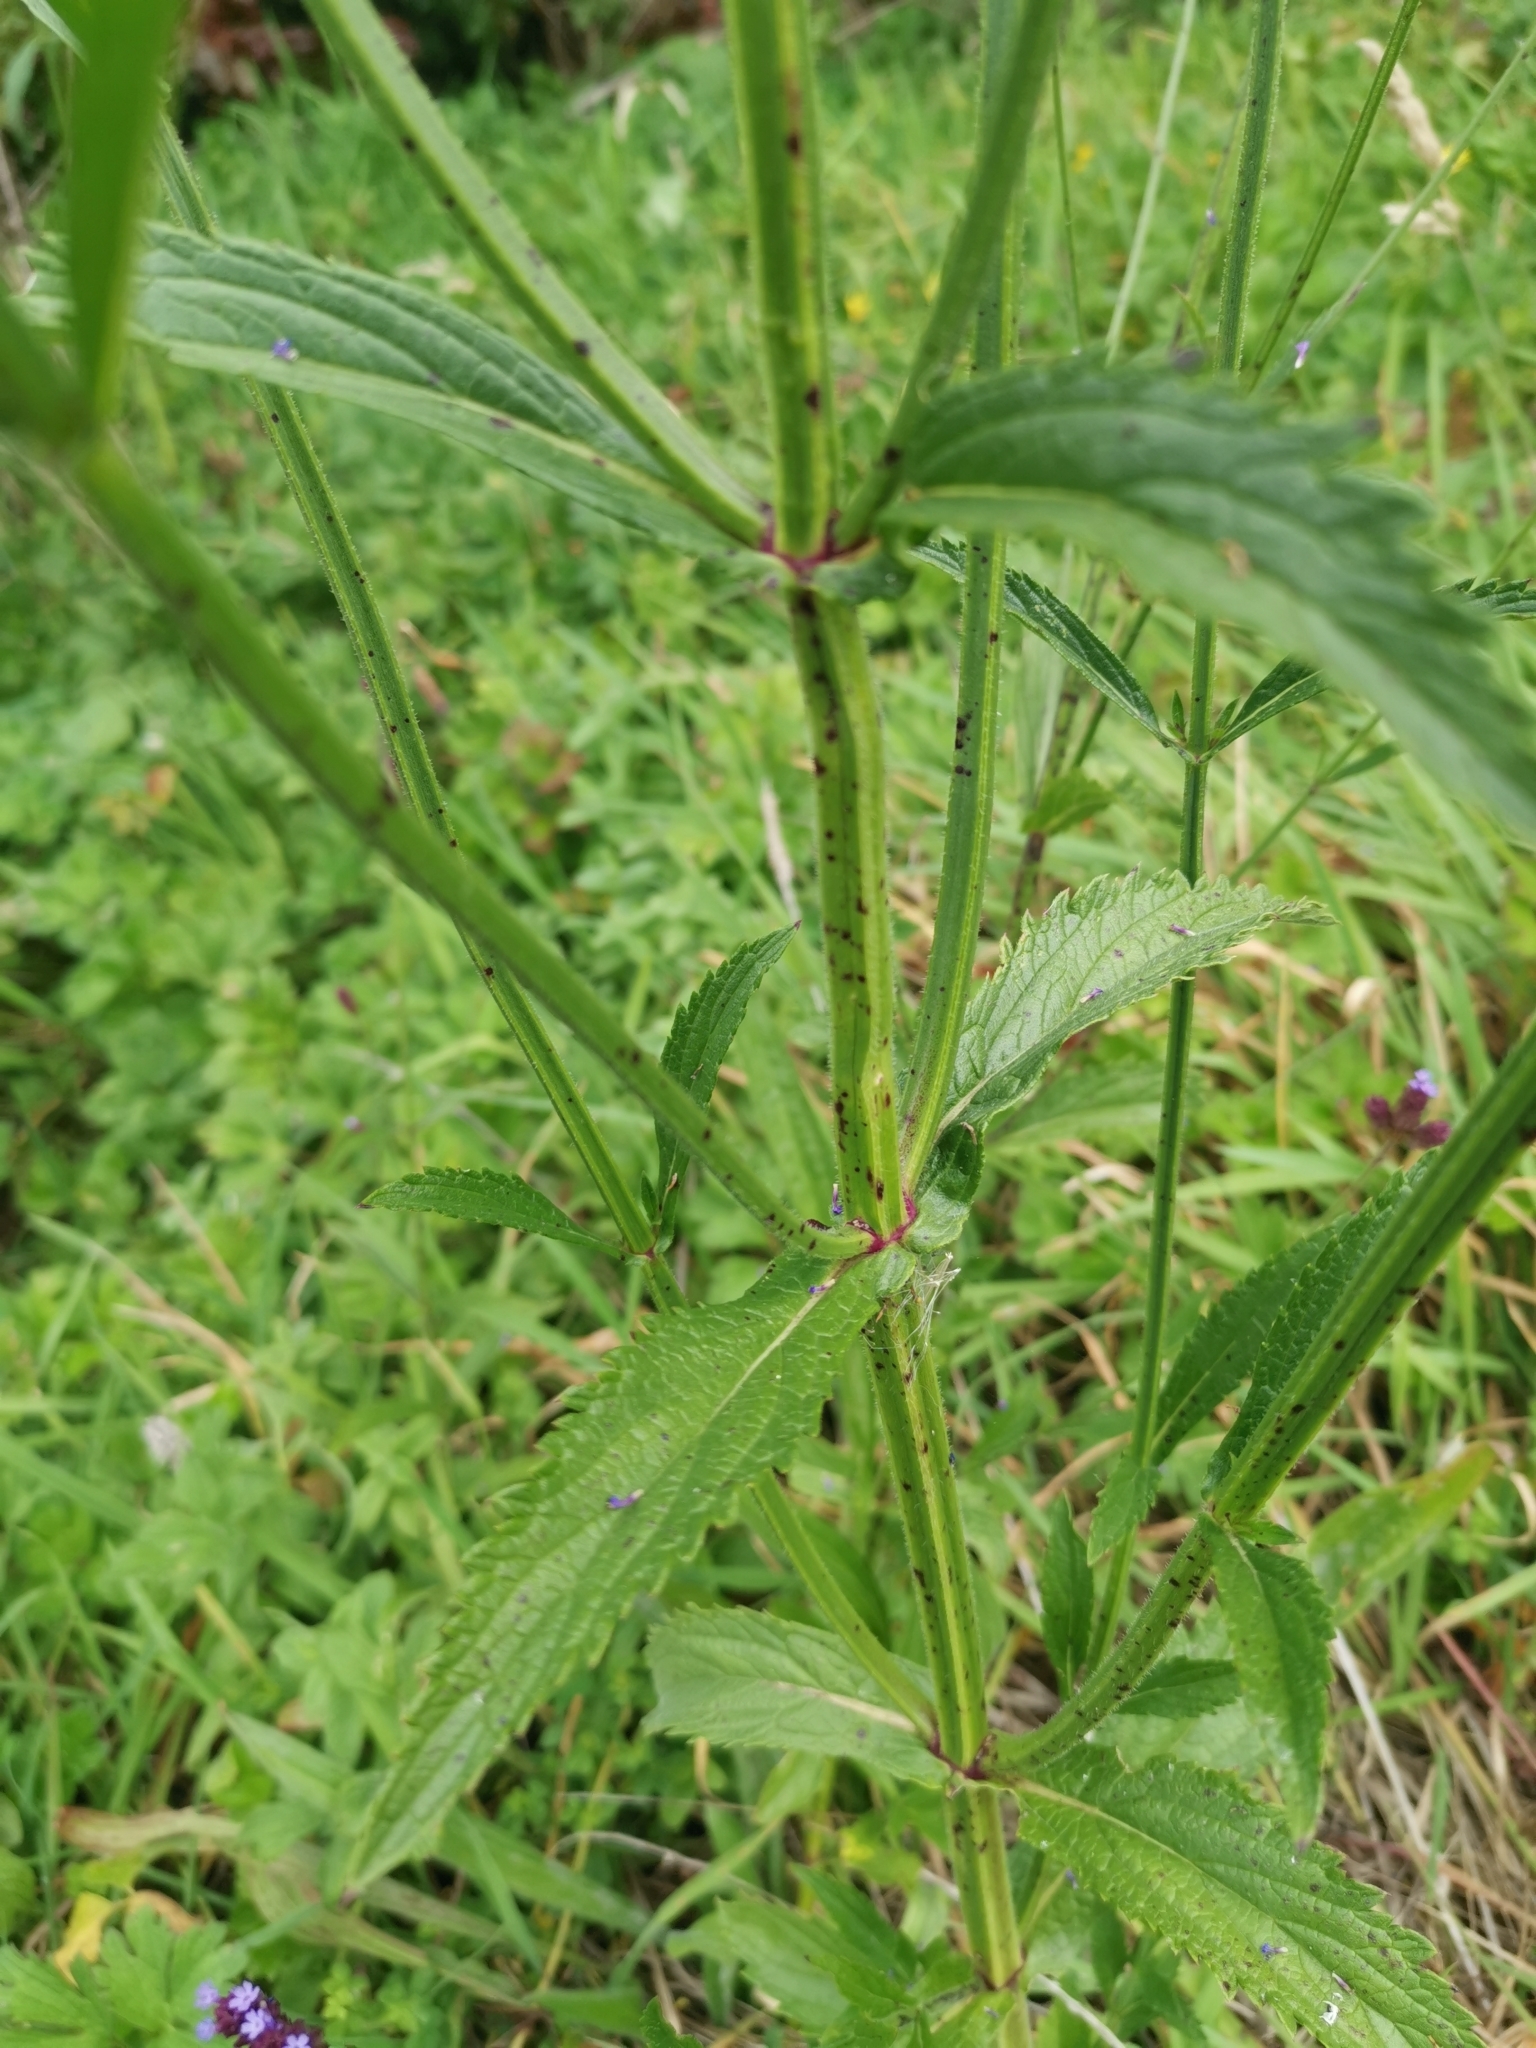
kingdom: Plantae
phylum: Tracheophyta
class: Magnoliopsida
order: Lamiales
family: Verbenaceae
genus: Verbena
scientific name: Verbena litoralis
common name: Seashore vervain
